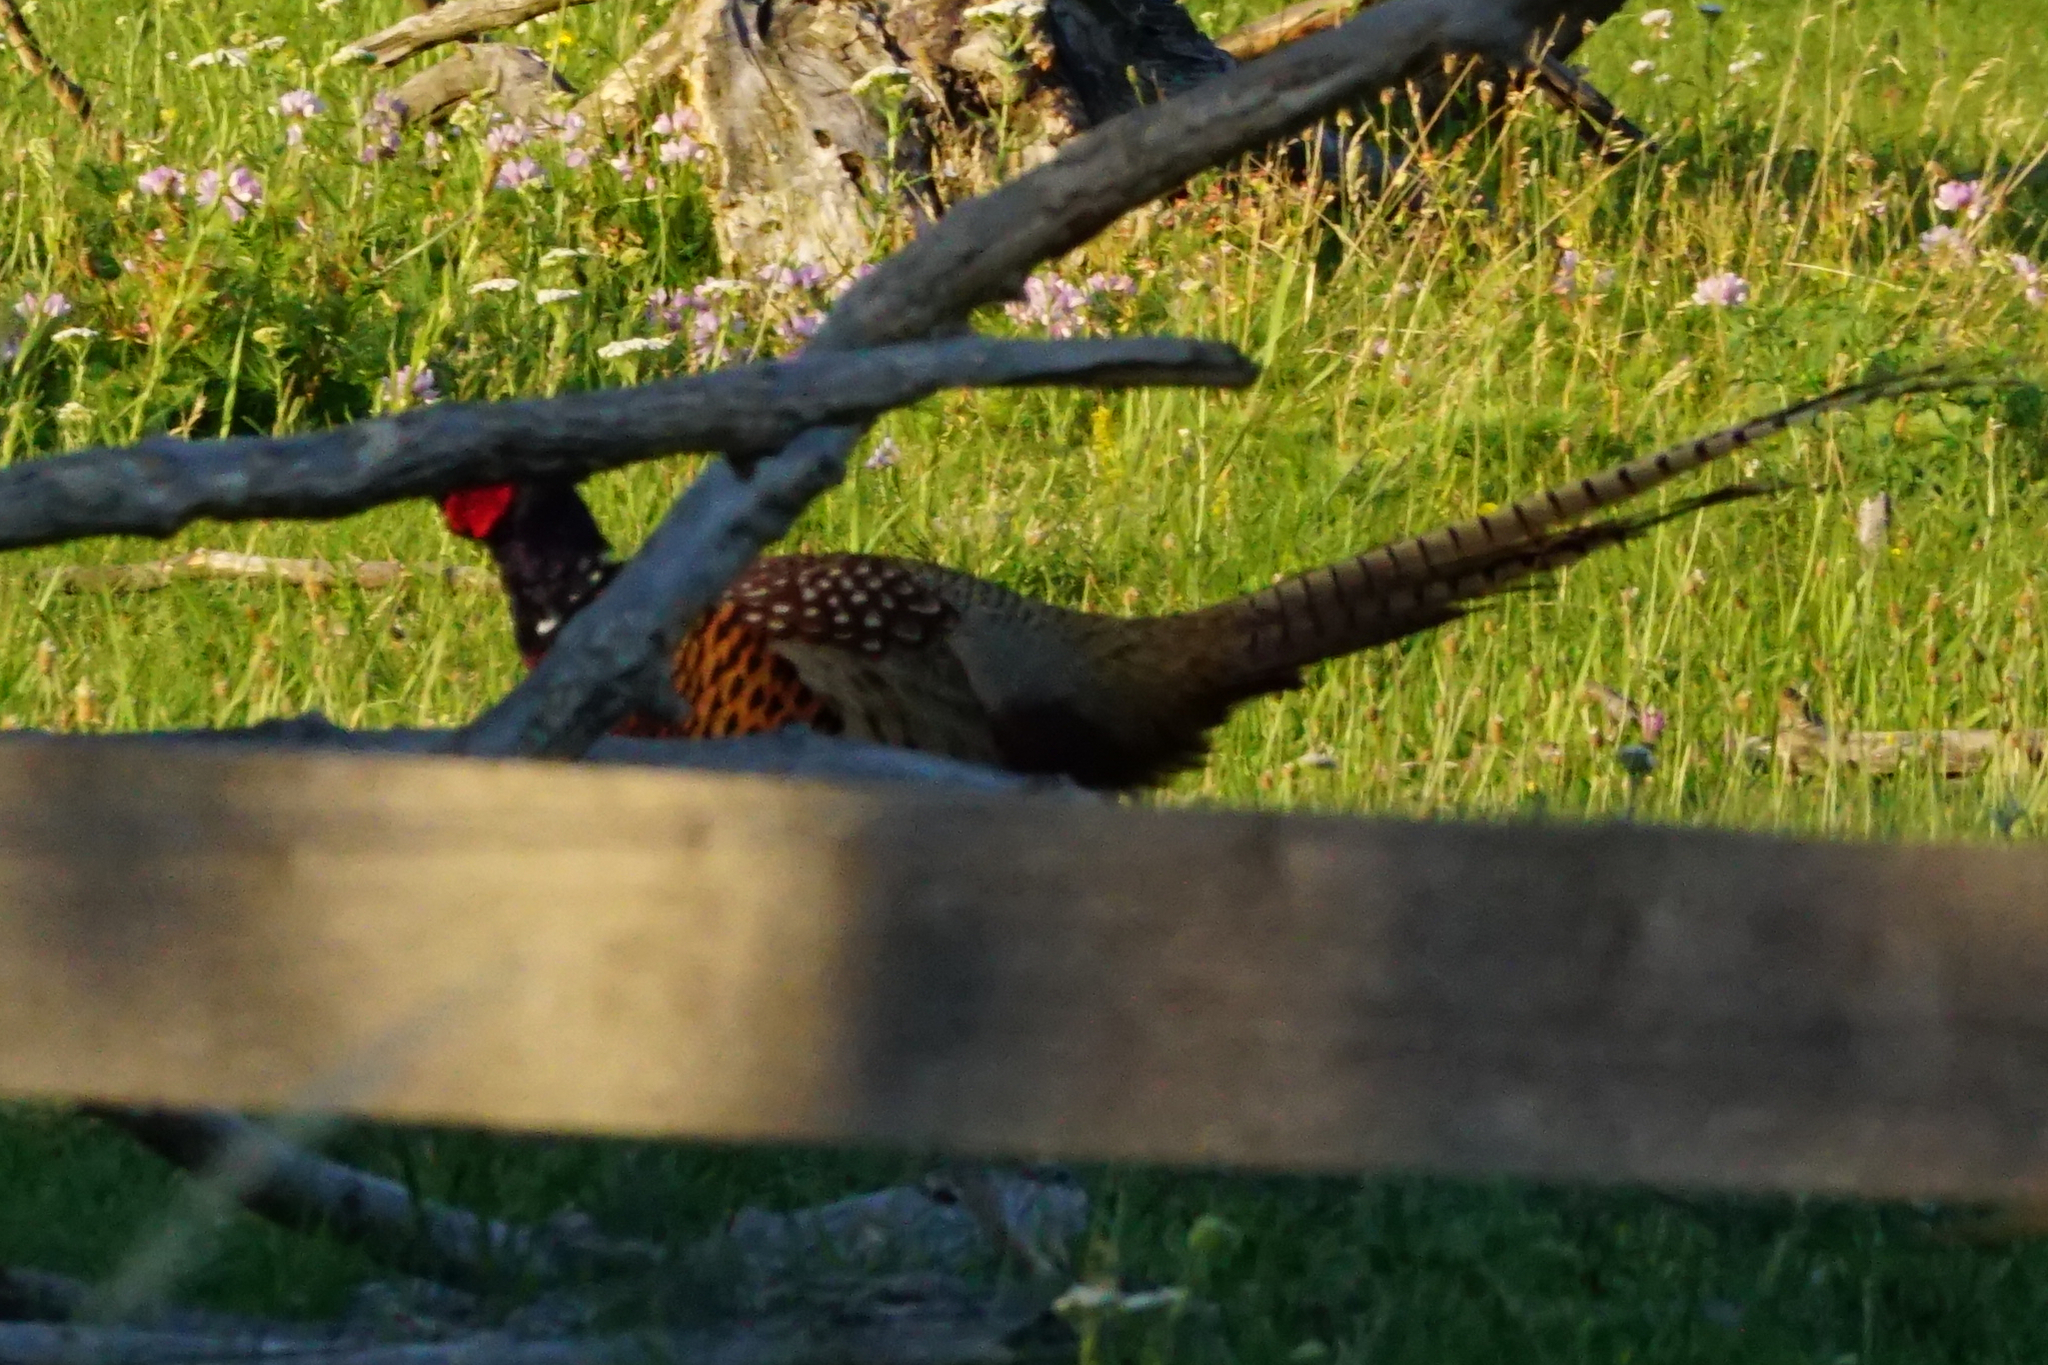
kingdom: Animalia
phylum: Chordata
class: Aves
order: Galliformes
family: Phasianidae
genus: Phasianus
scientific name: Phasianus colchicus
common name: Common pheasant
